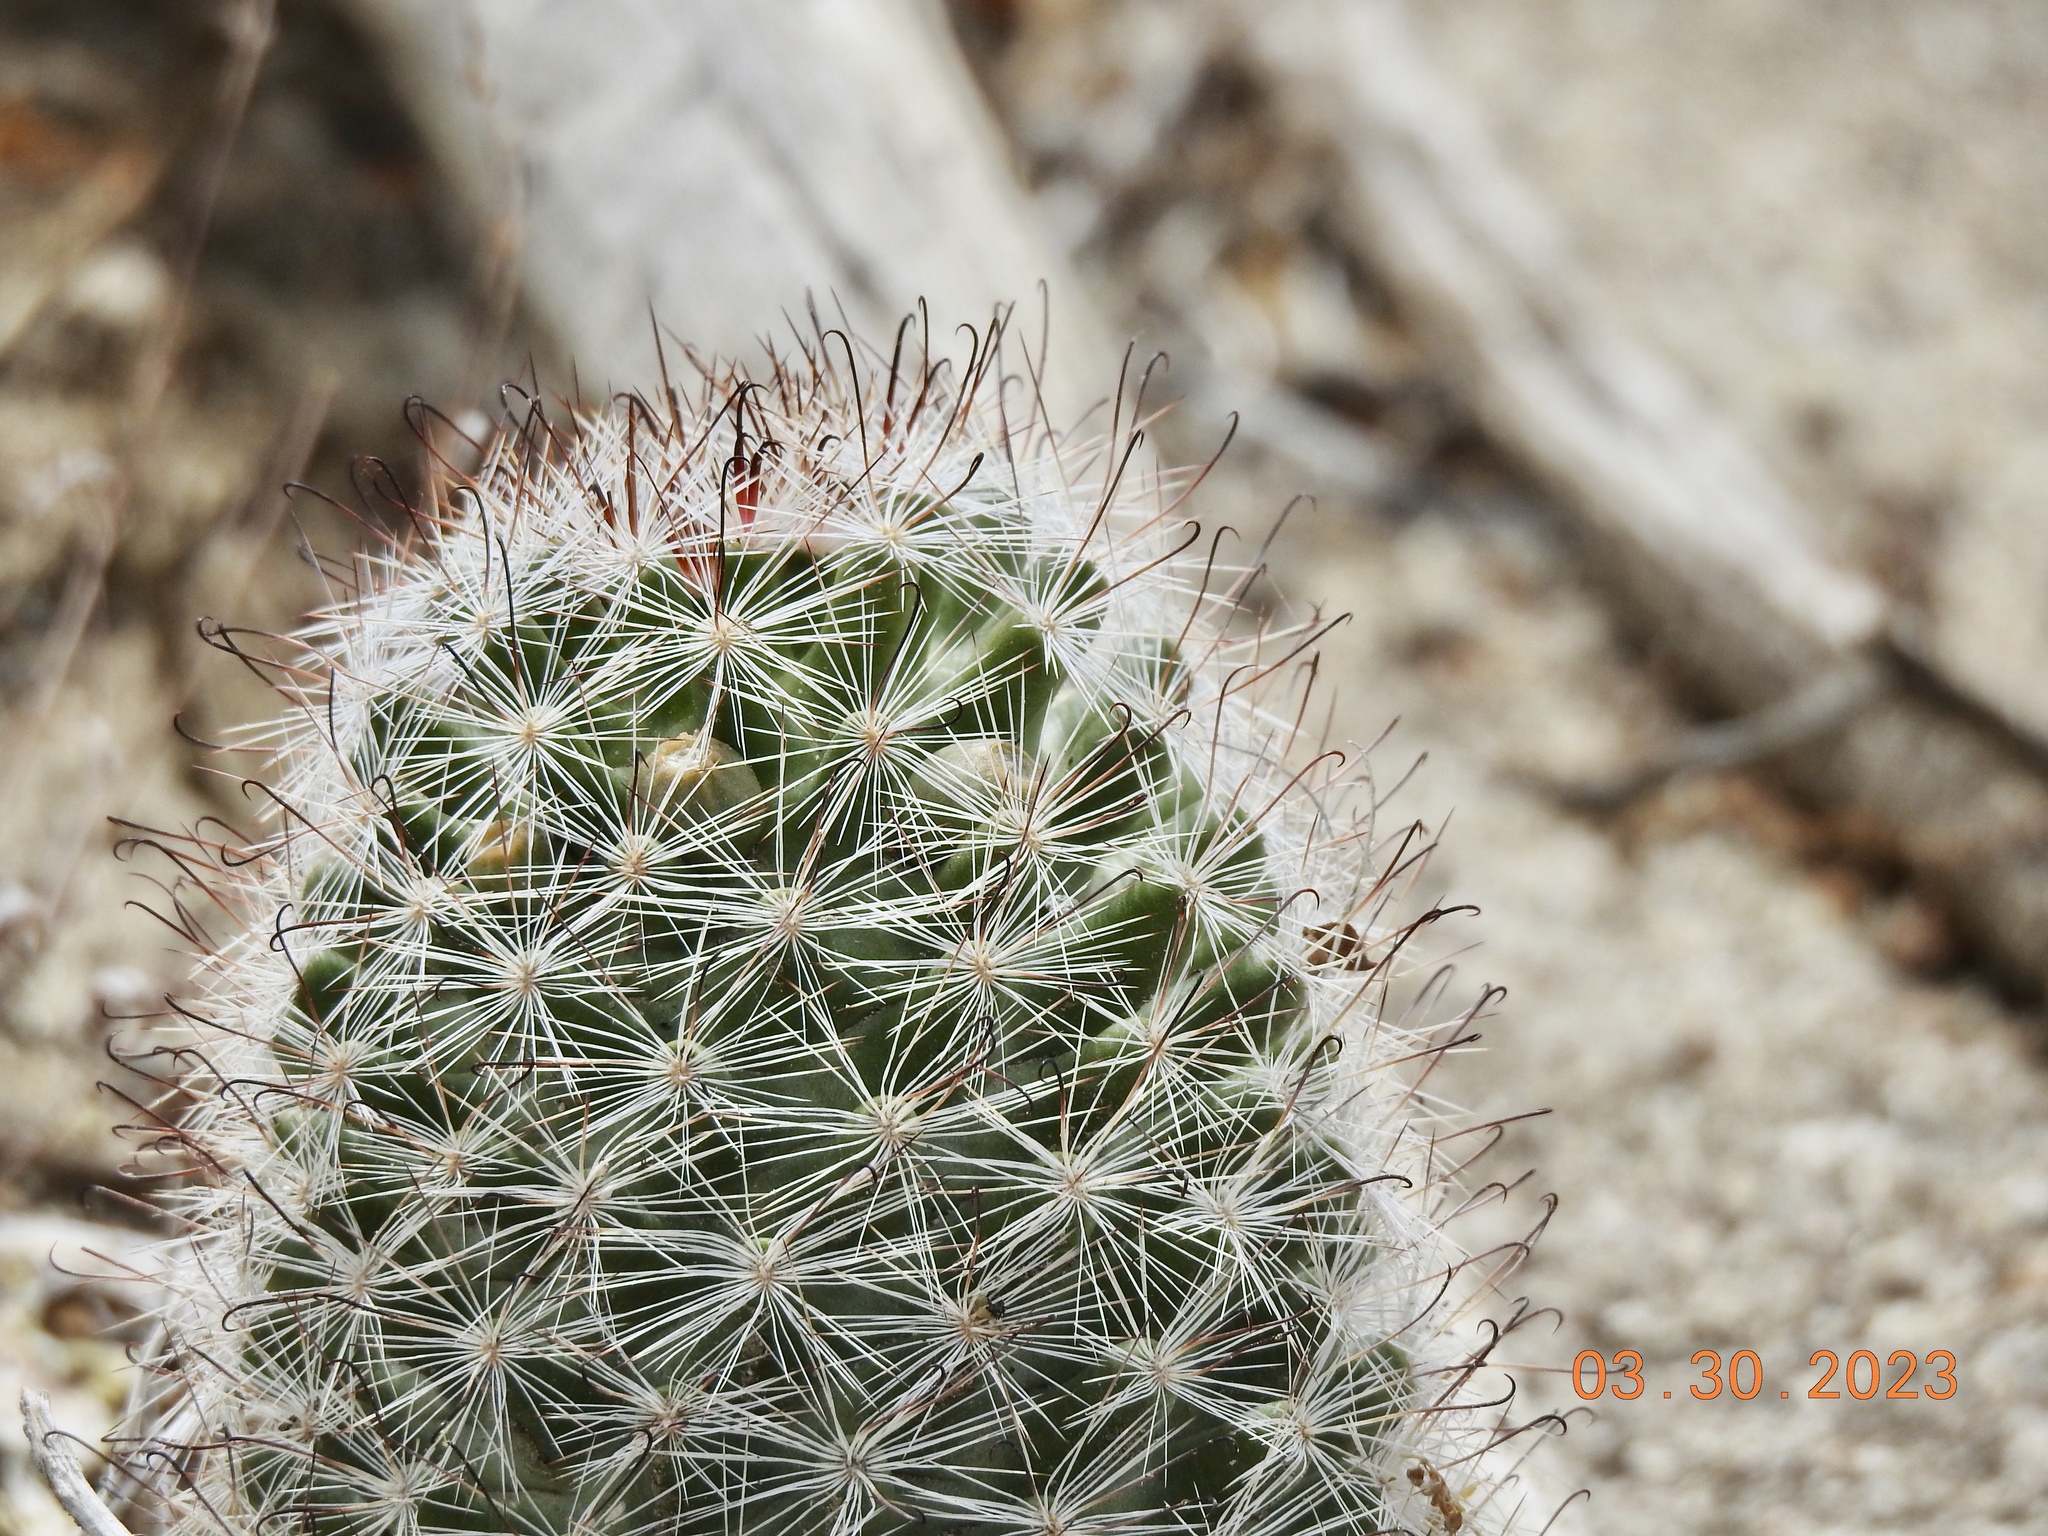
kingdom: Plantae
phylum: Tracheophyta
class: Magnoliopsida
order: Caryophyllales
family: Cactaceae
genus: Cochemiea
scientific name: Cochemiea tetrancistra
